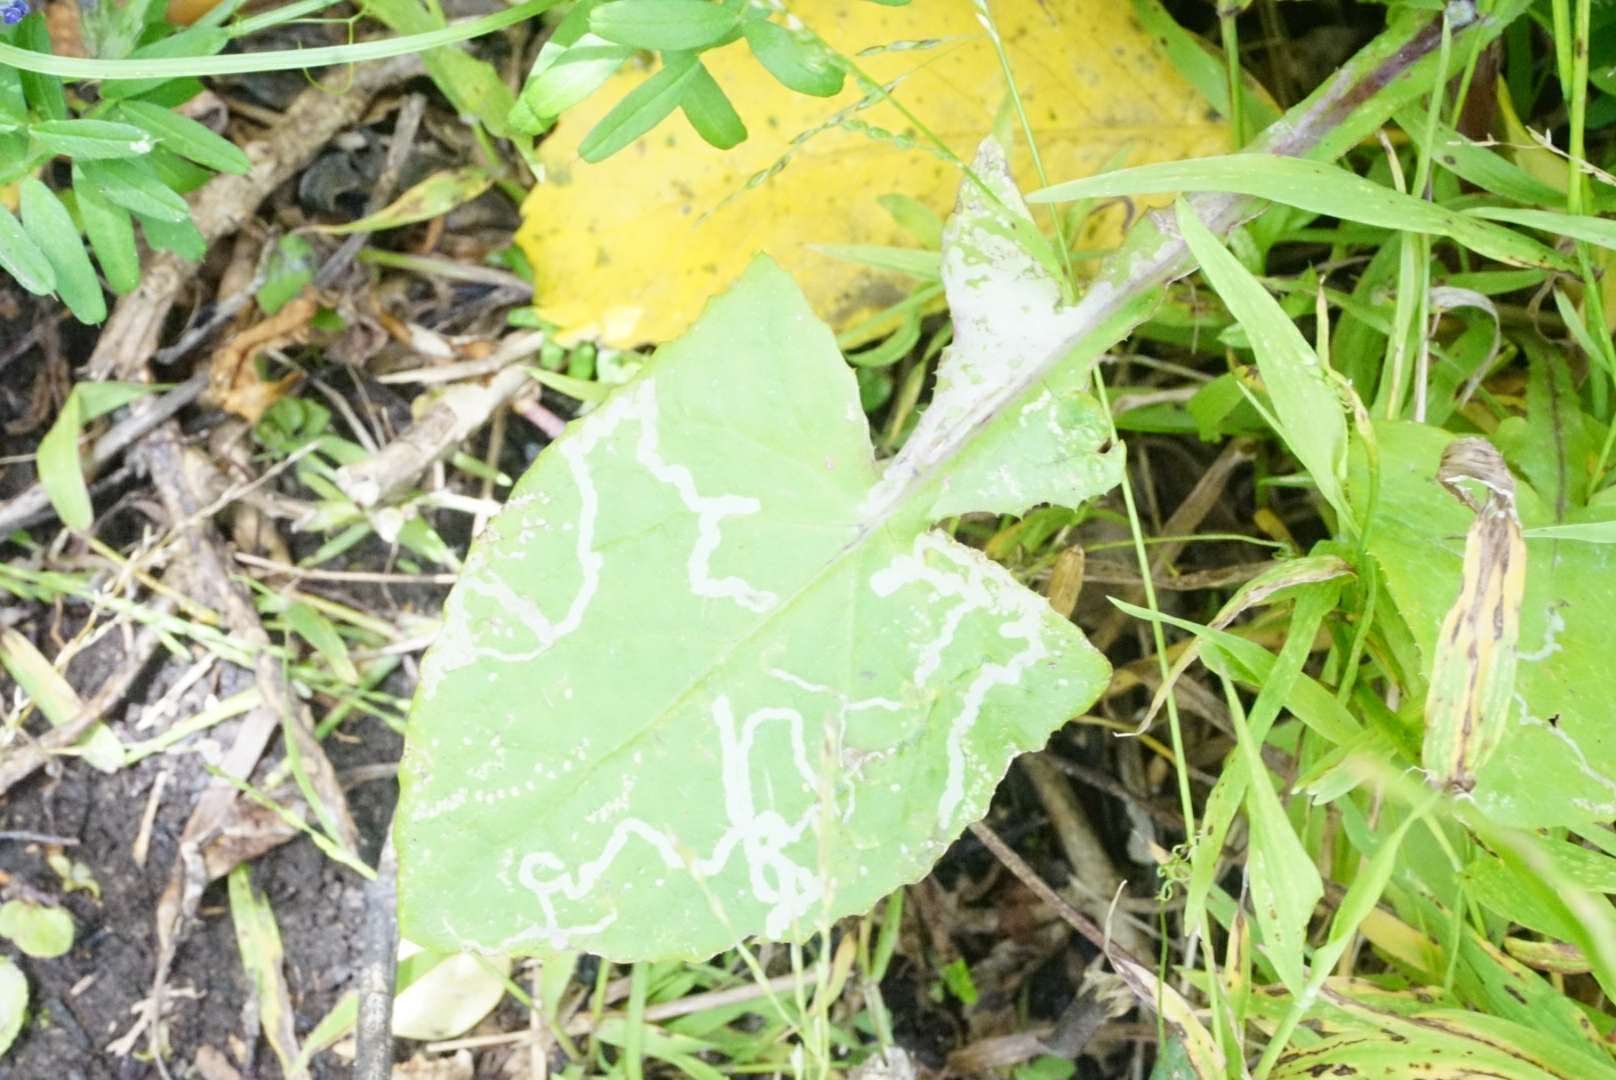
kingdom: Plantae
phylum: Tracheophyta
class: Magnoliopsida
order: Asterales
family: Asteraceae
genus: Sonchus
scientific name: Sonchus oleraceus
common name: Common sowthistle
